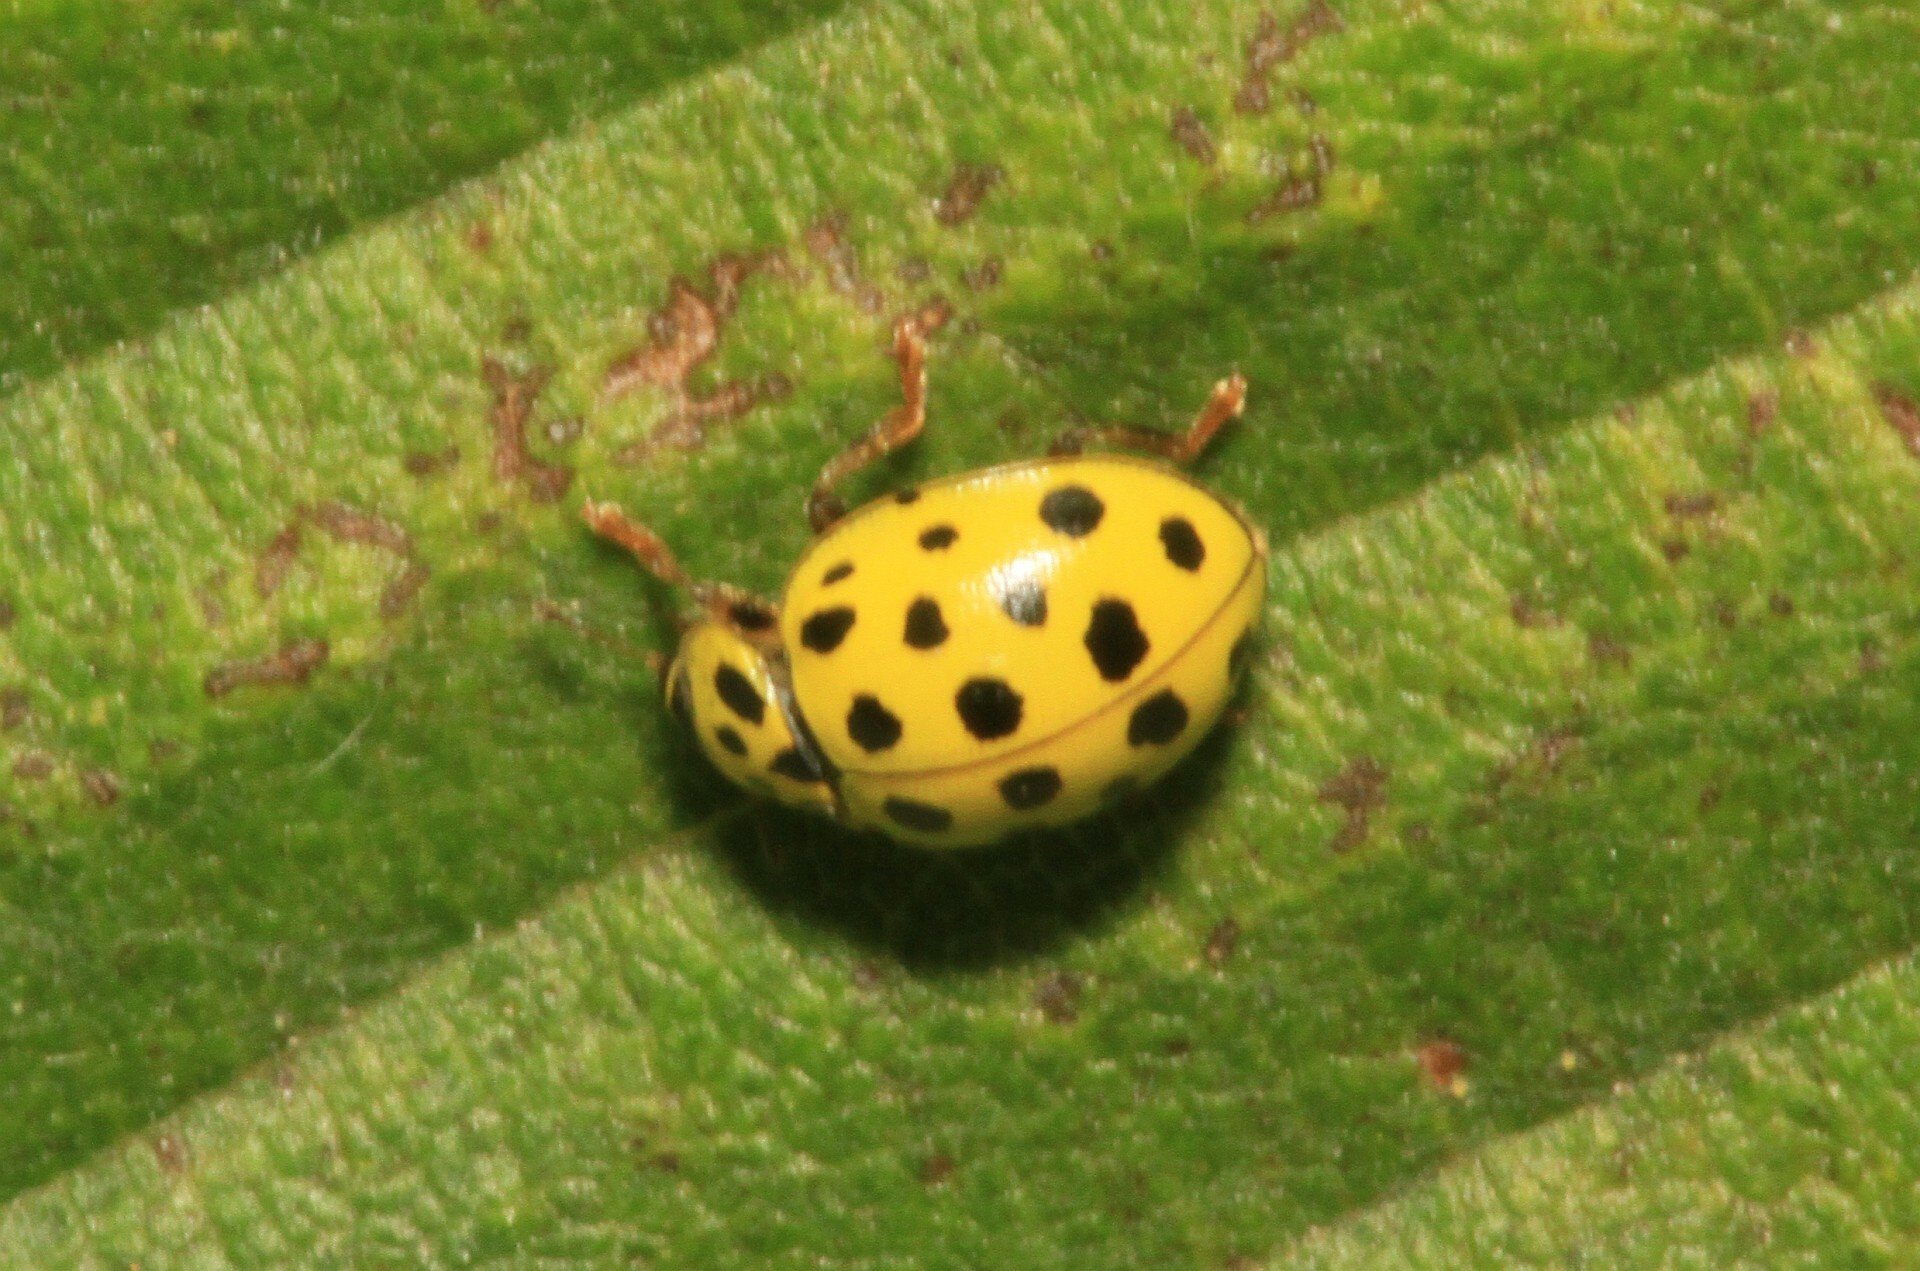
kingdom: Animalia
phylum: Arthropoda
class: Insecta
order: Coleoptera
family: Coccinellidae
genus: Psyllobora
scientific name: Psyllobora vigintiduopunctata
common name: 22-spot ladybird
